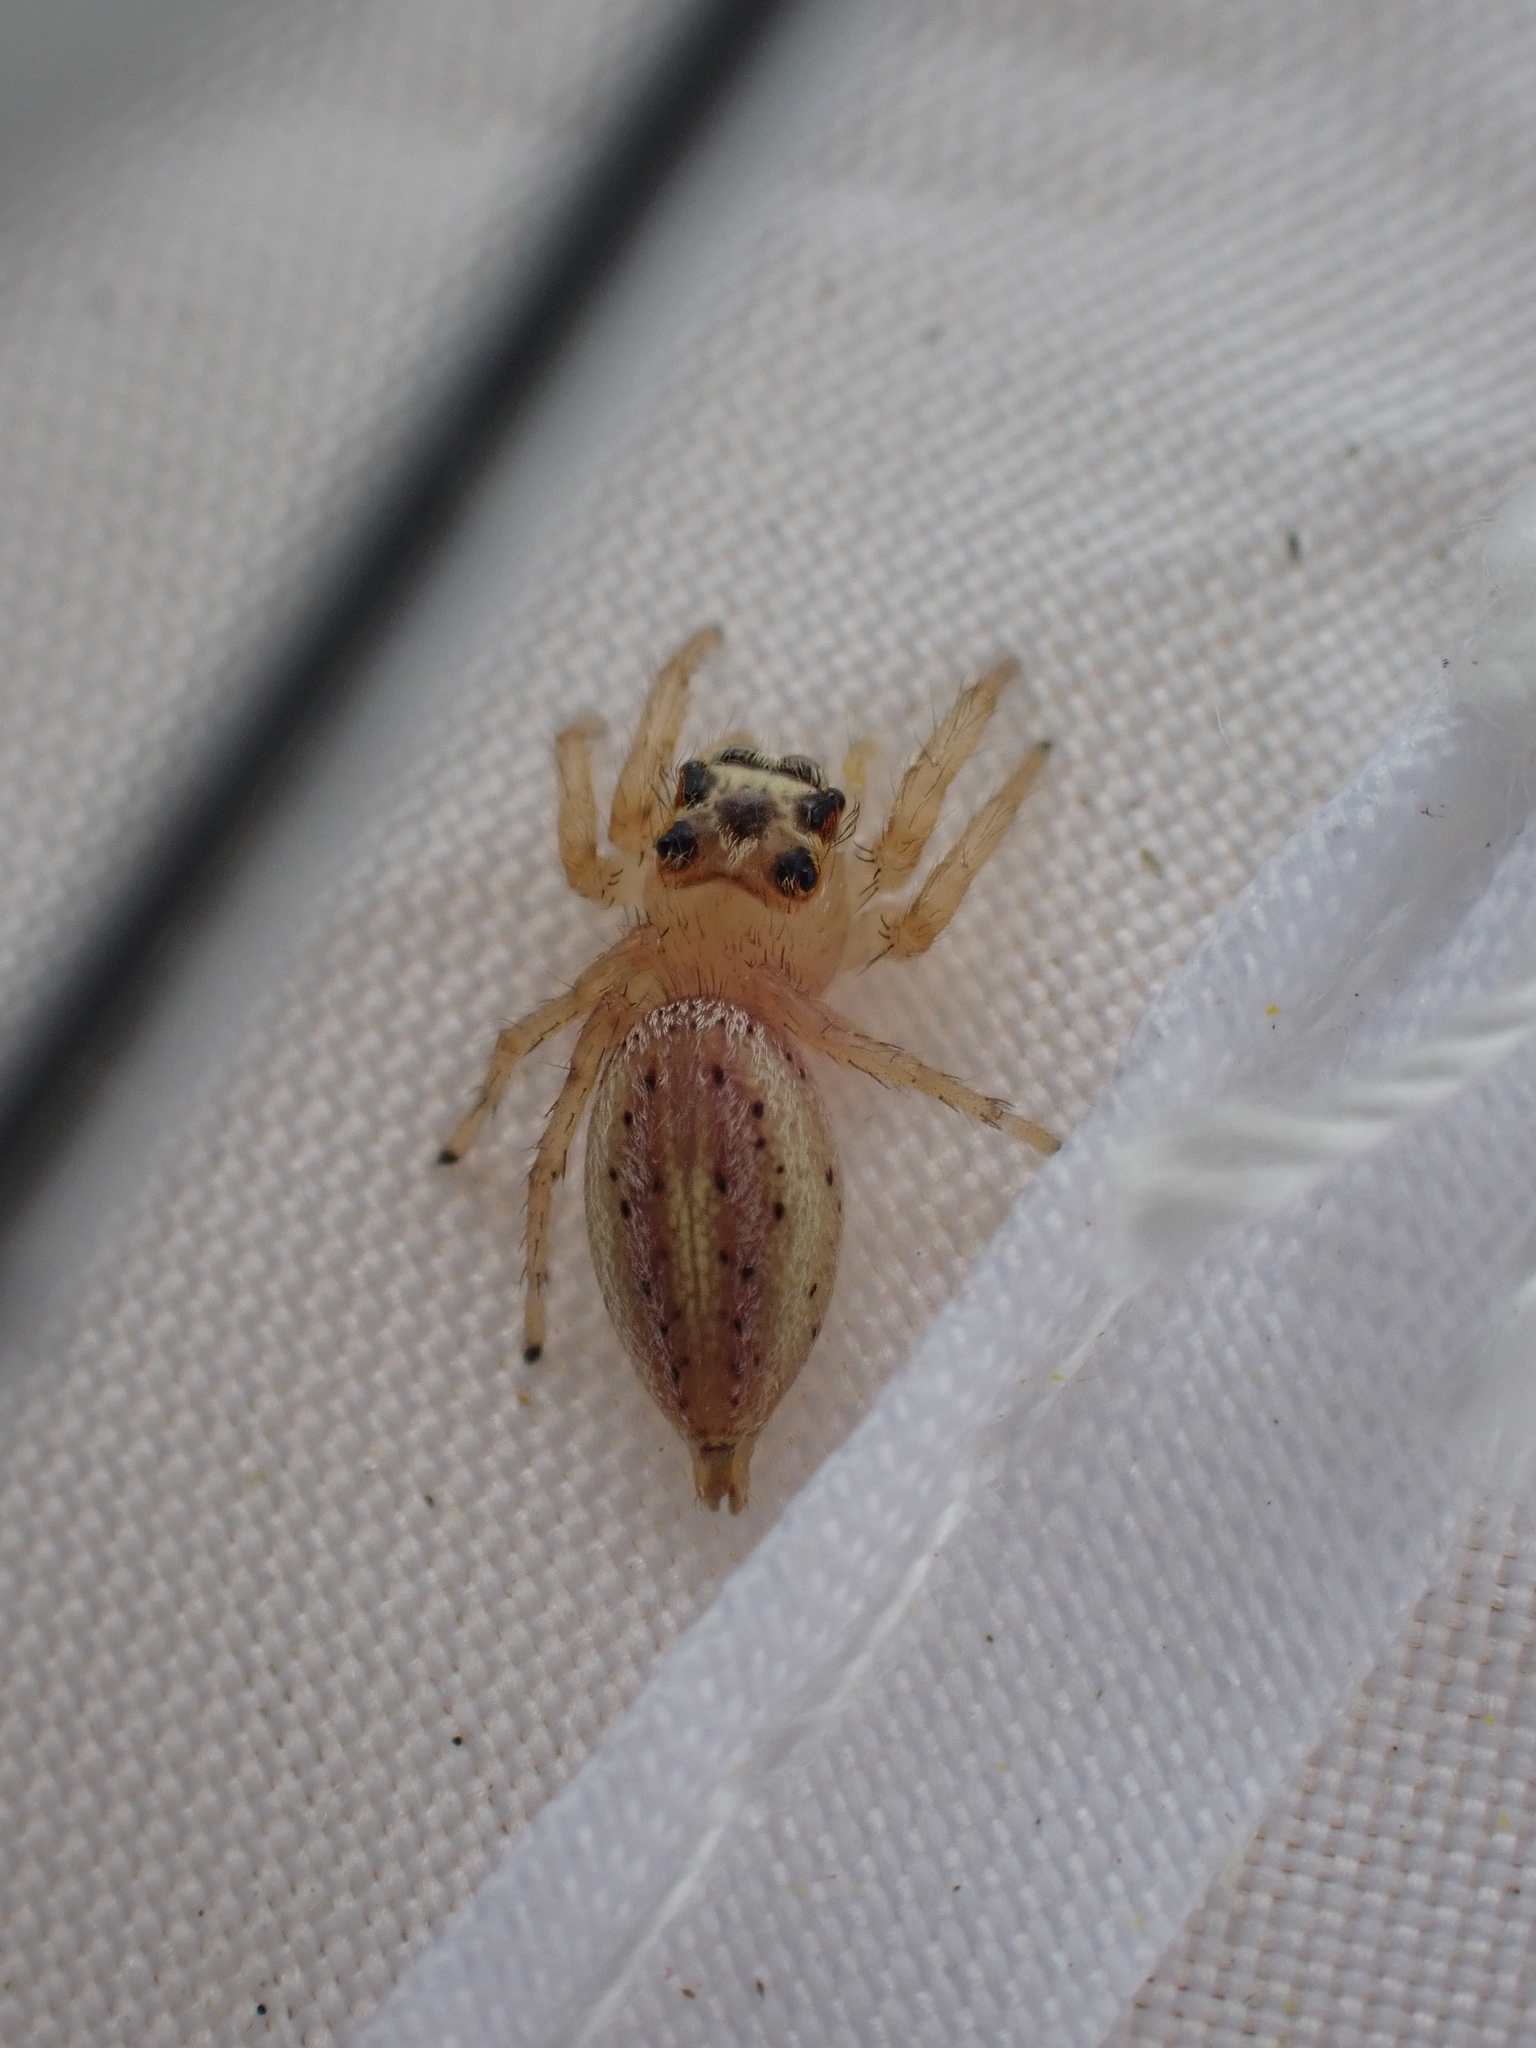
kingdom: Animalia
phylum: Arthropoda
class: Arachnida
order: Araneae
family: Salticidae
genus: Colonus
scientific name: Colonus sylvanus
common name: Jumping spiders
